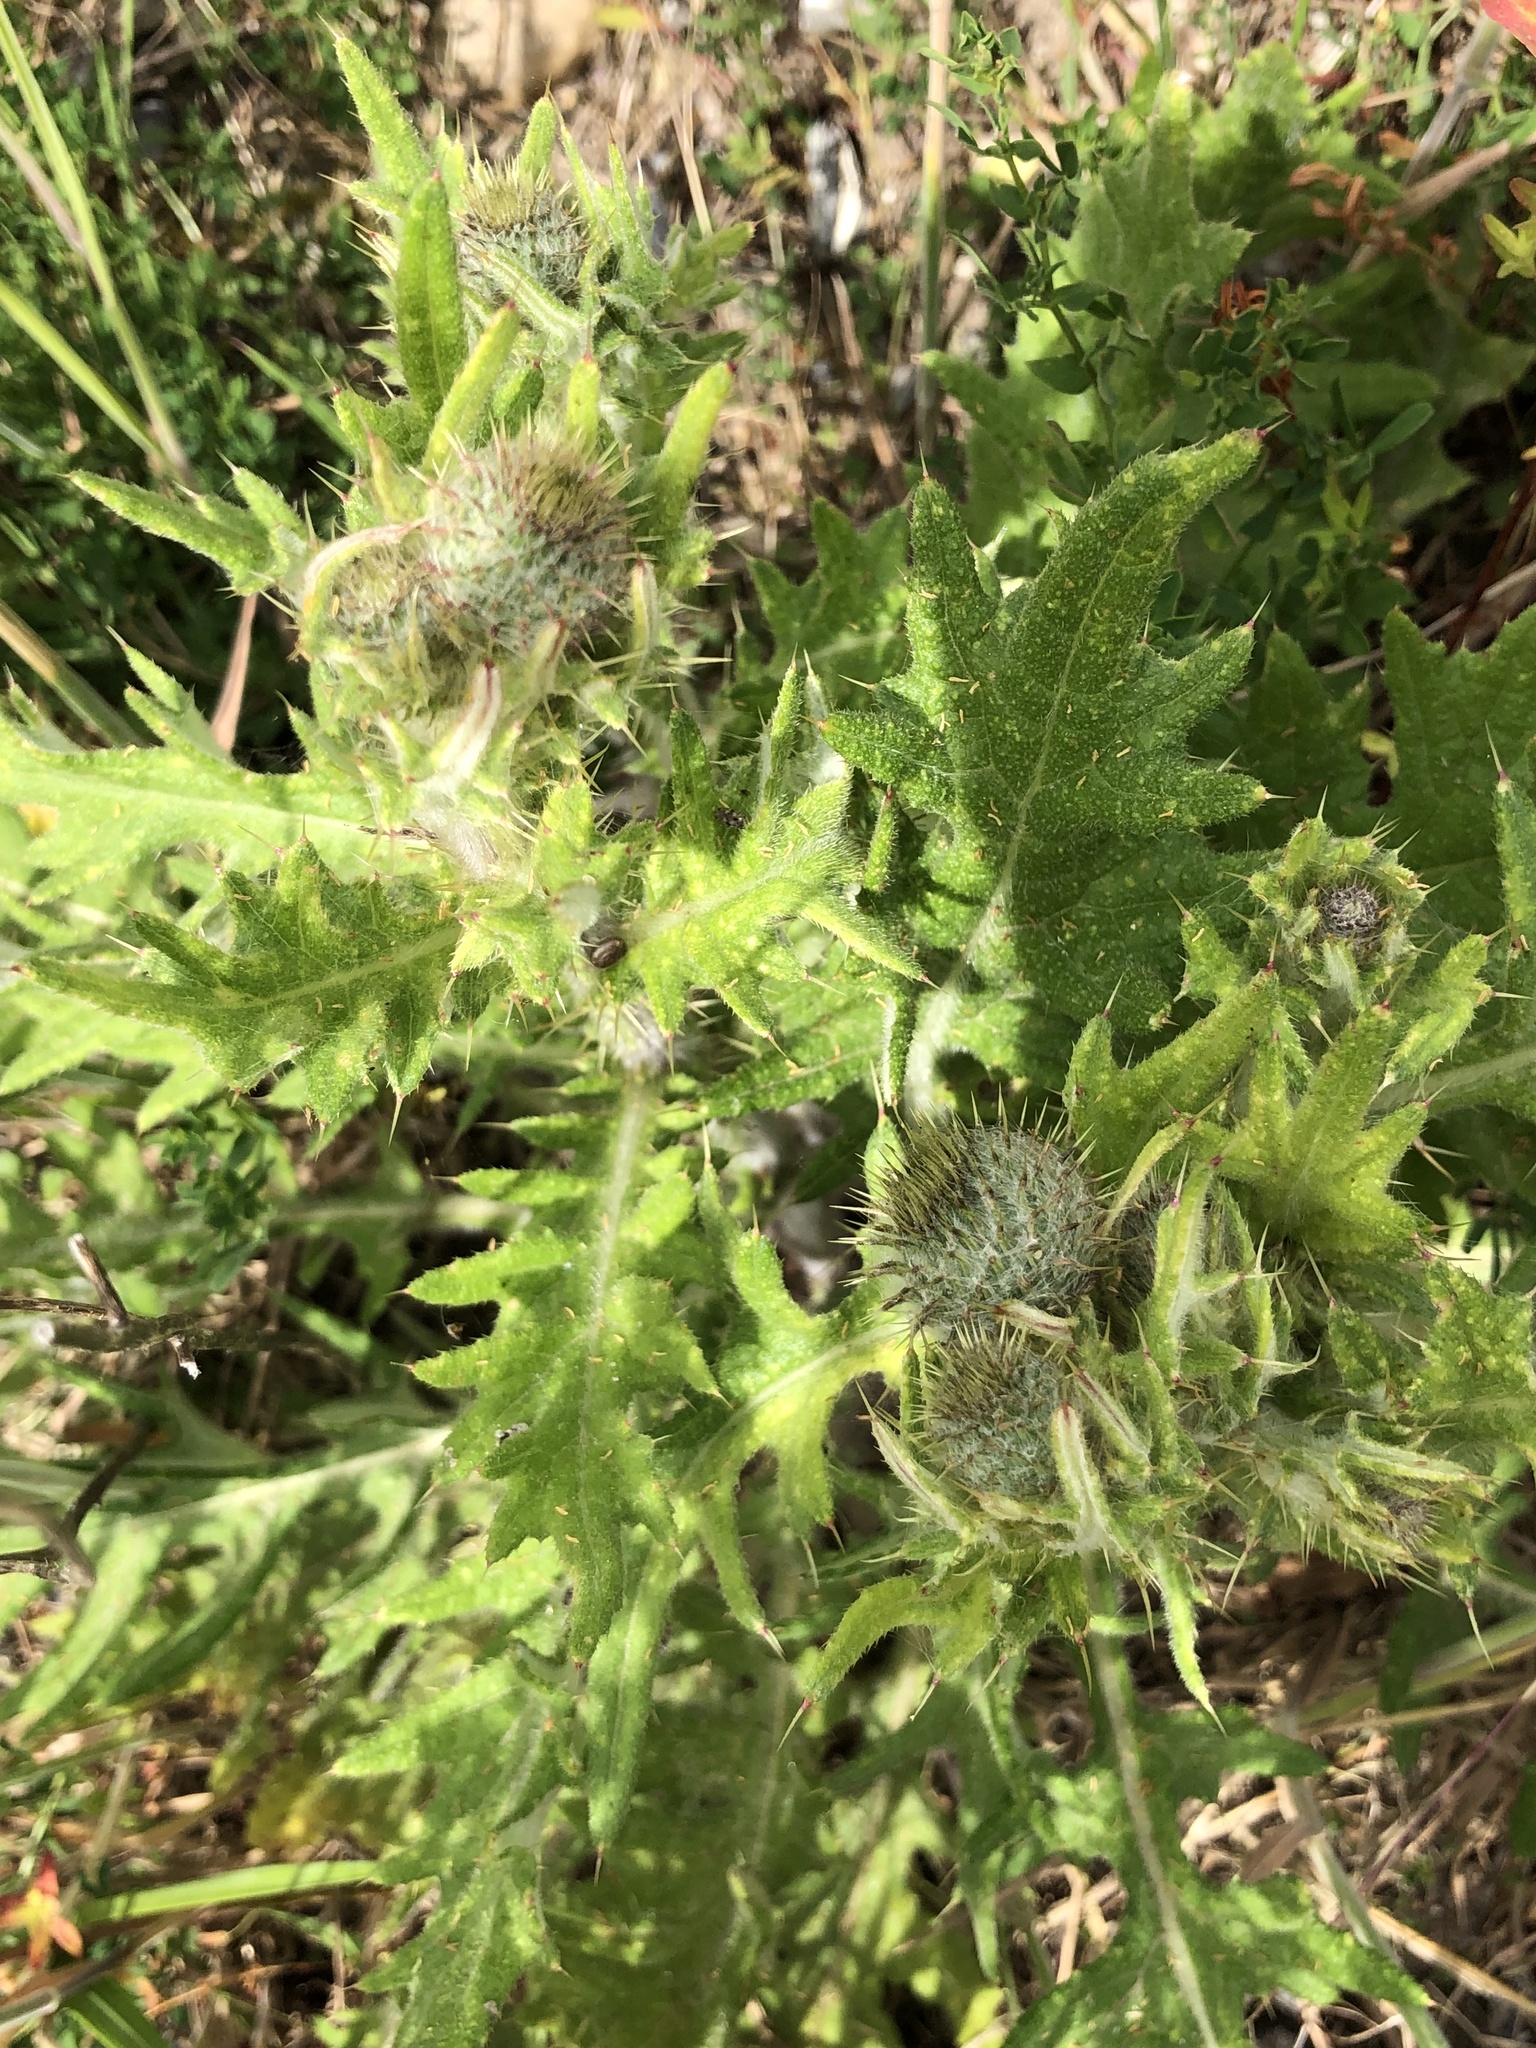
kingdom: Plantae
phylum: Tracheophyta
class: Magnoliopsida
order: Asterales
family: Asteraceae
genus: Cirsium
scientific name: Cirsium vulgare
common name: Bull thistle
